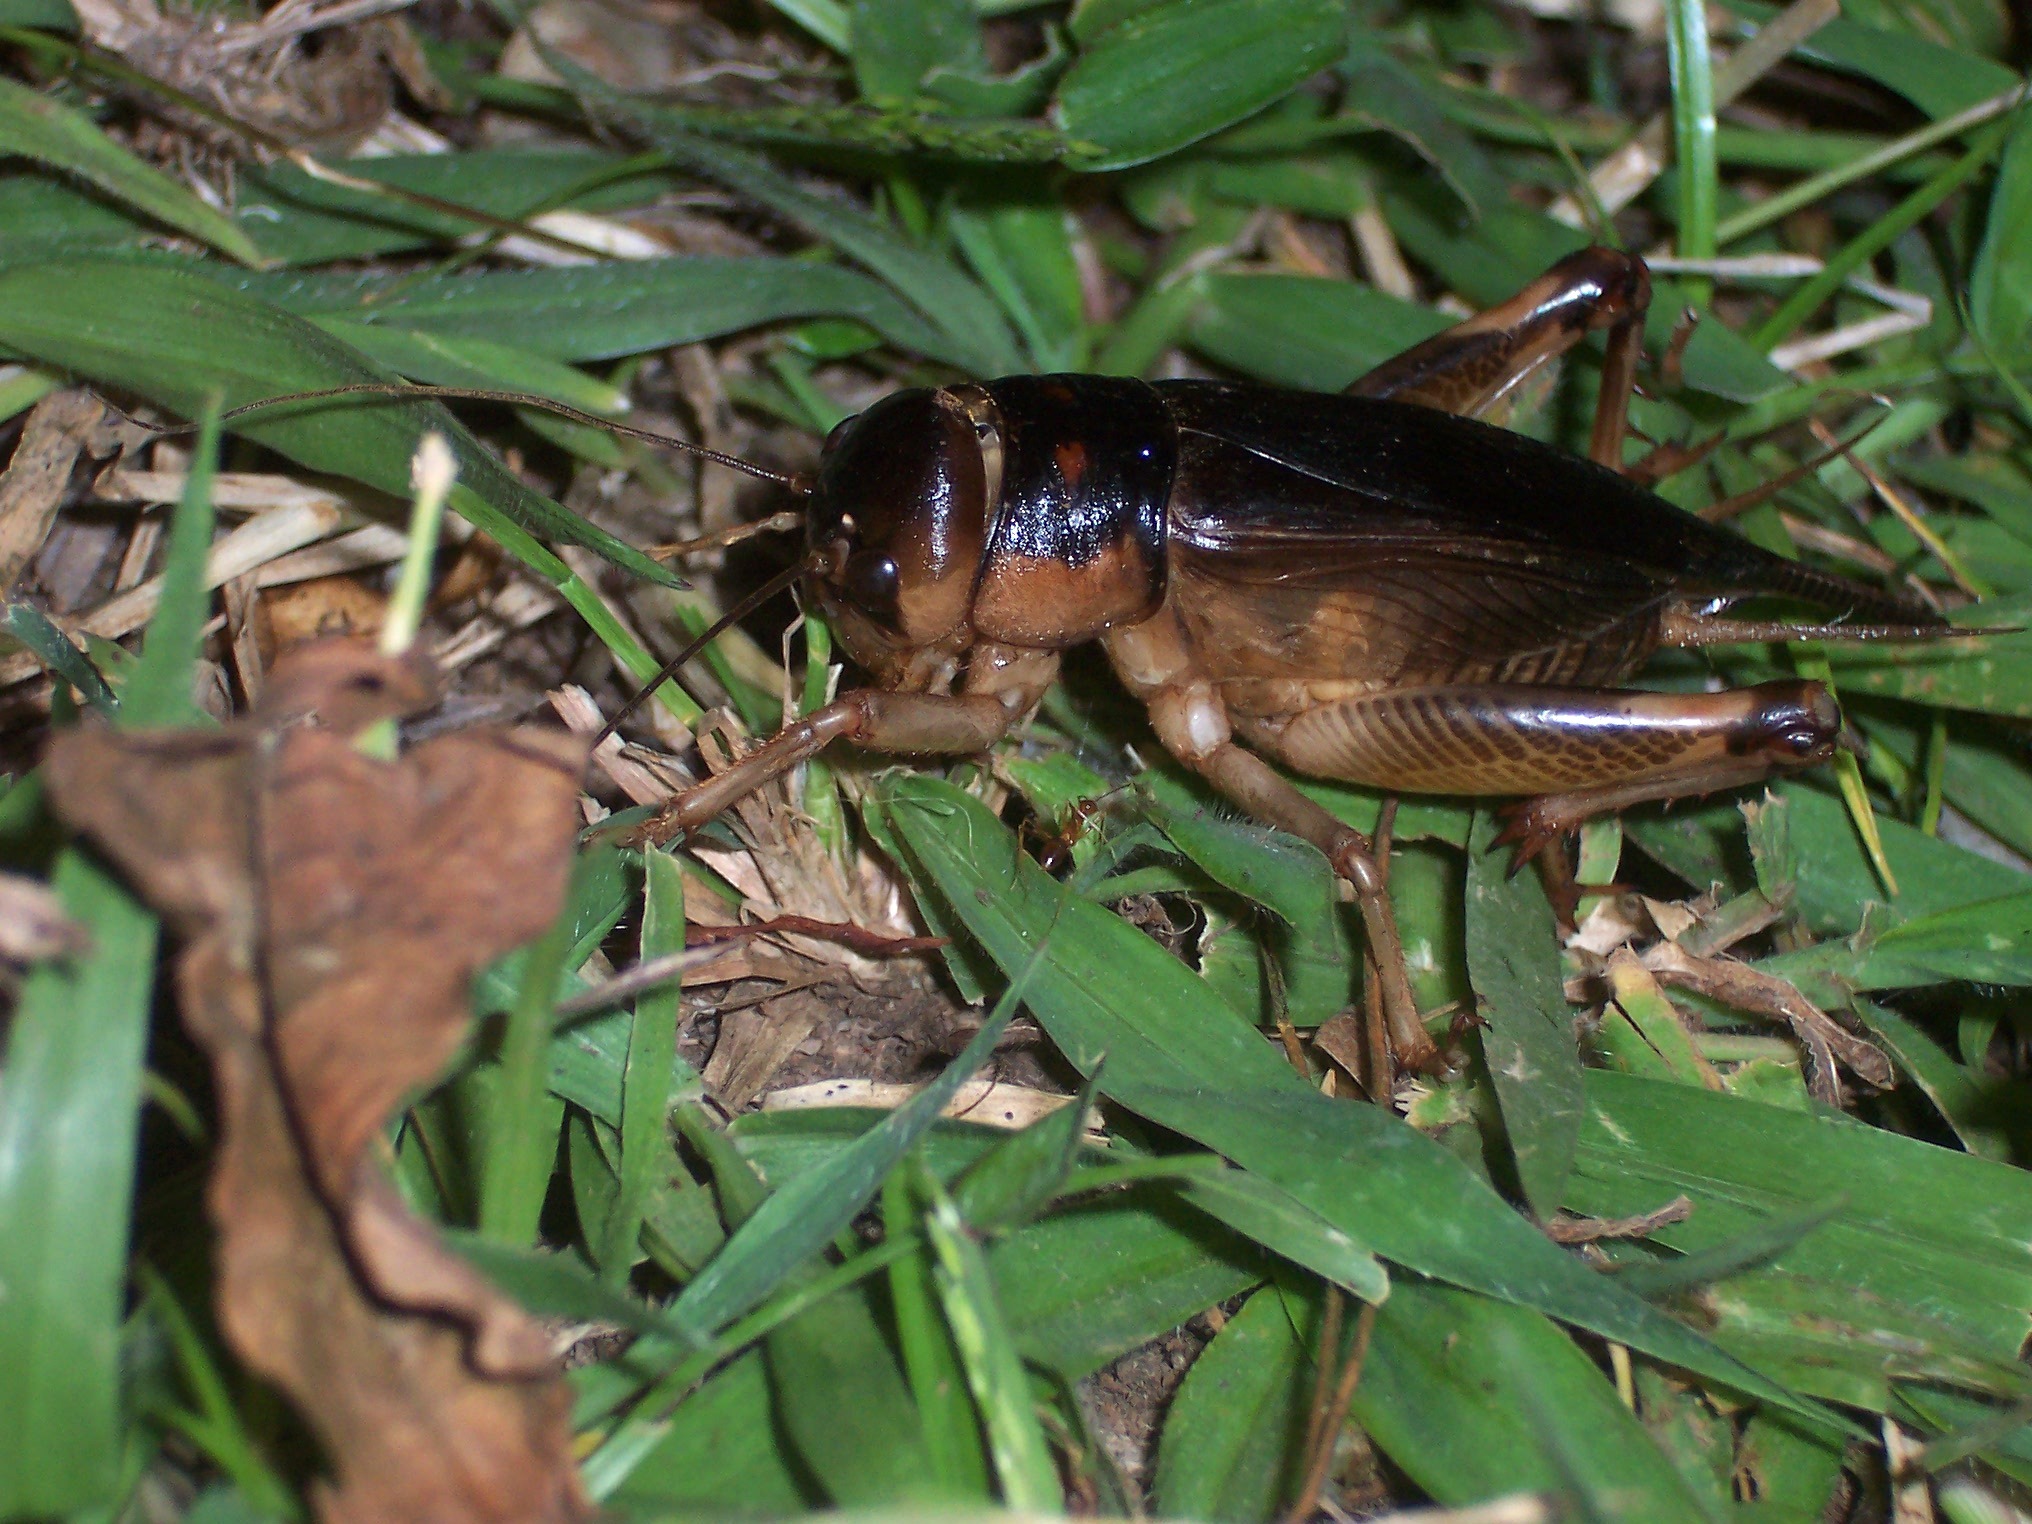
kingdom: Animalia
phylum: Arthropoda
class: Insecta
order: Orthoptera
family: Gryllidae
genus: Tarbinskiellus
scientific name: Tarbinskiellus portentosus
